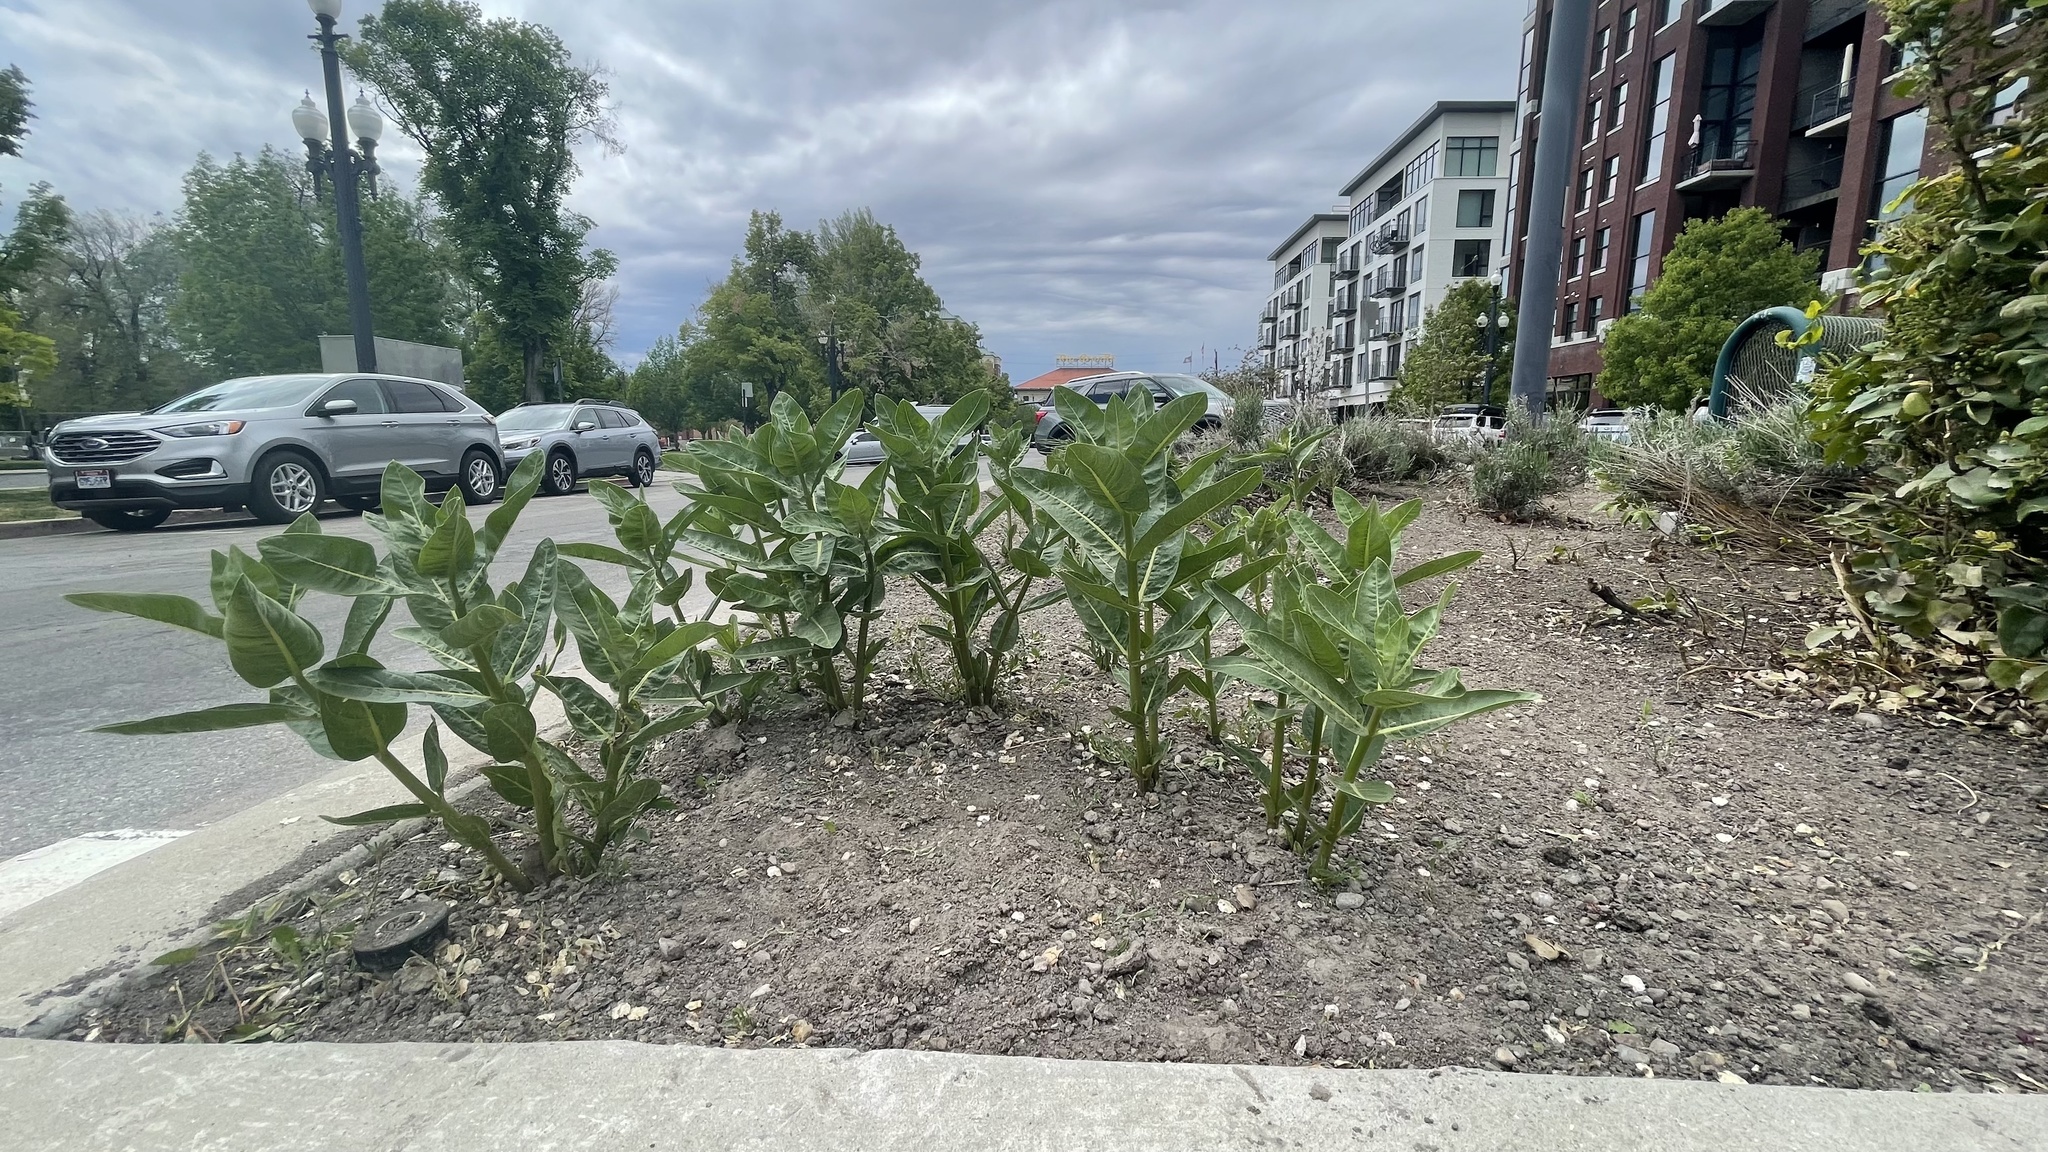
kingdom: Plantae
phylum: Tracheophyta
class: Magnoliopsida
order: Gentianales
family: Apocynaceae
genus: Asclepias
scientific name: Asclepias speciosa
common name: Showy milkweed
